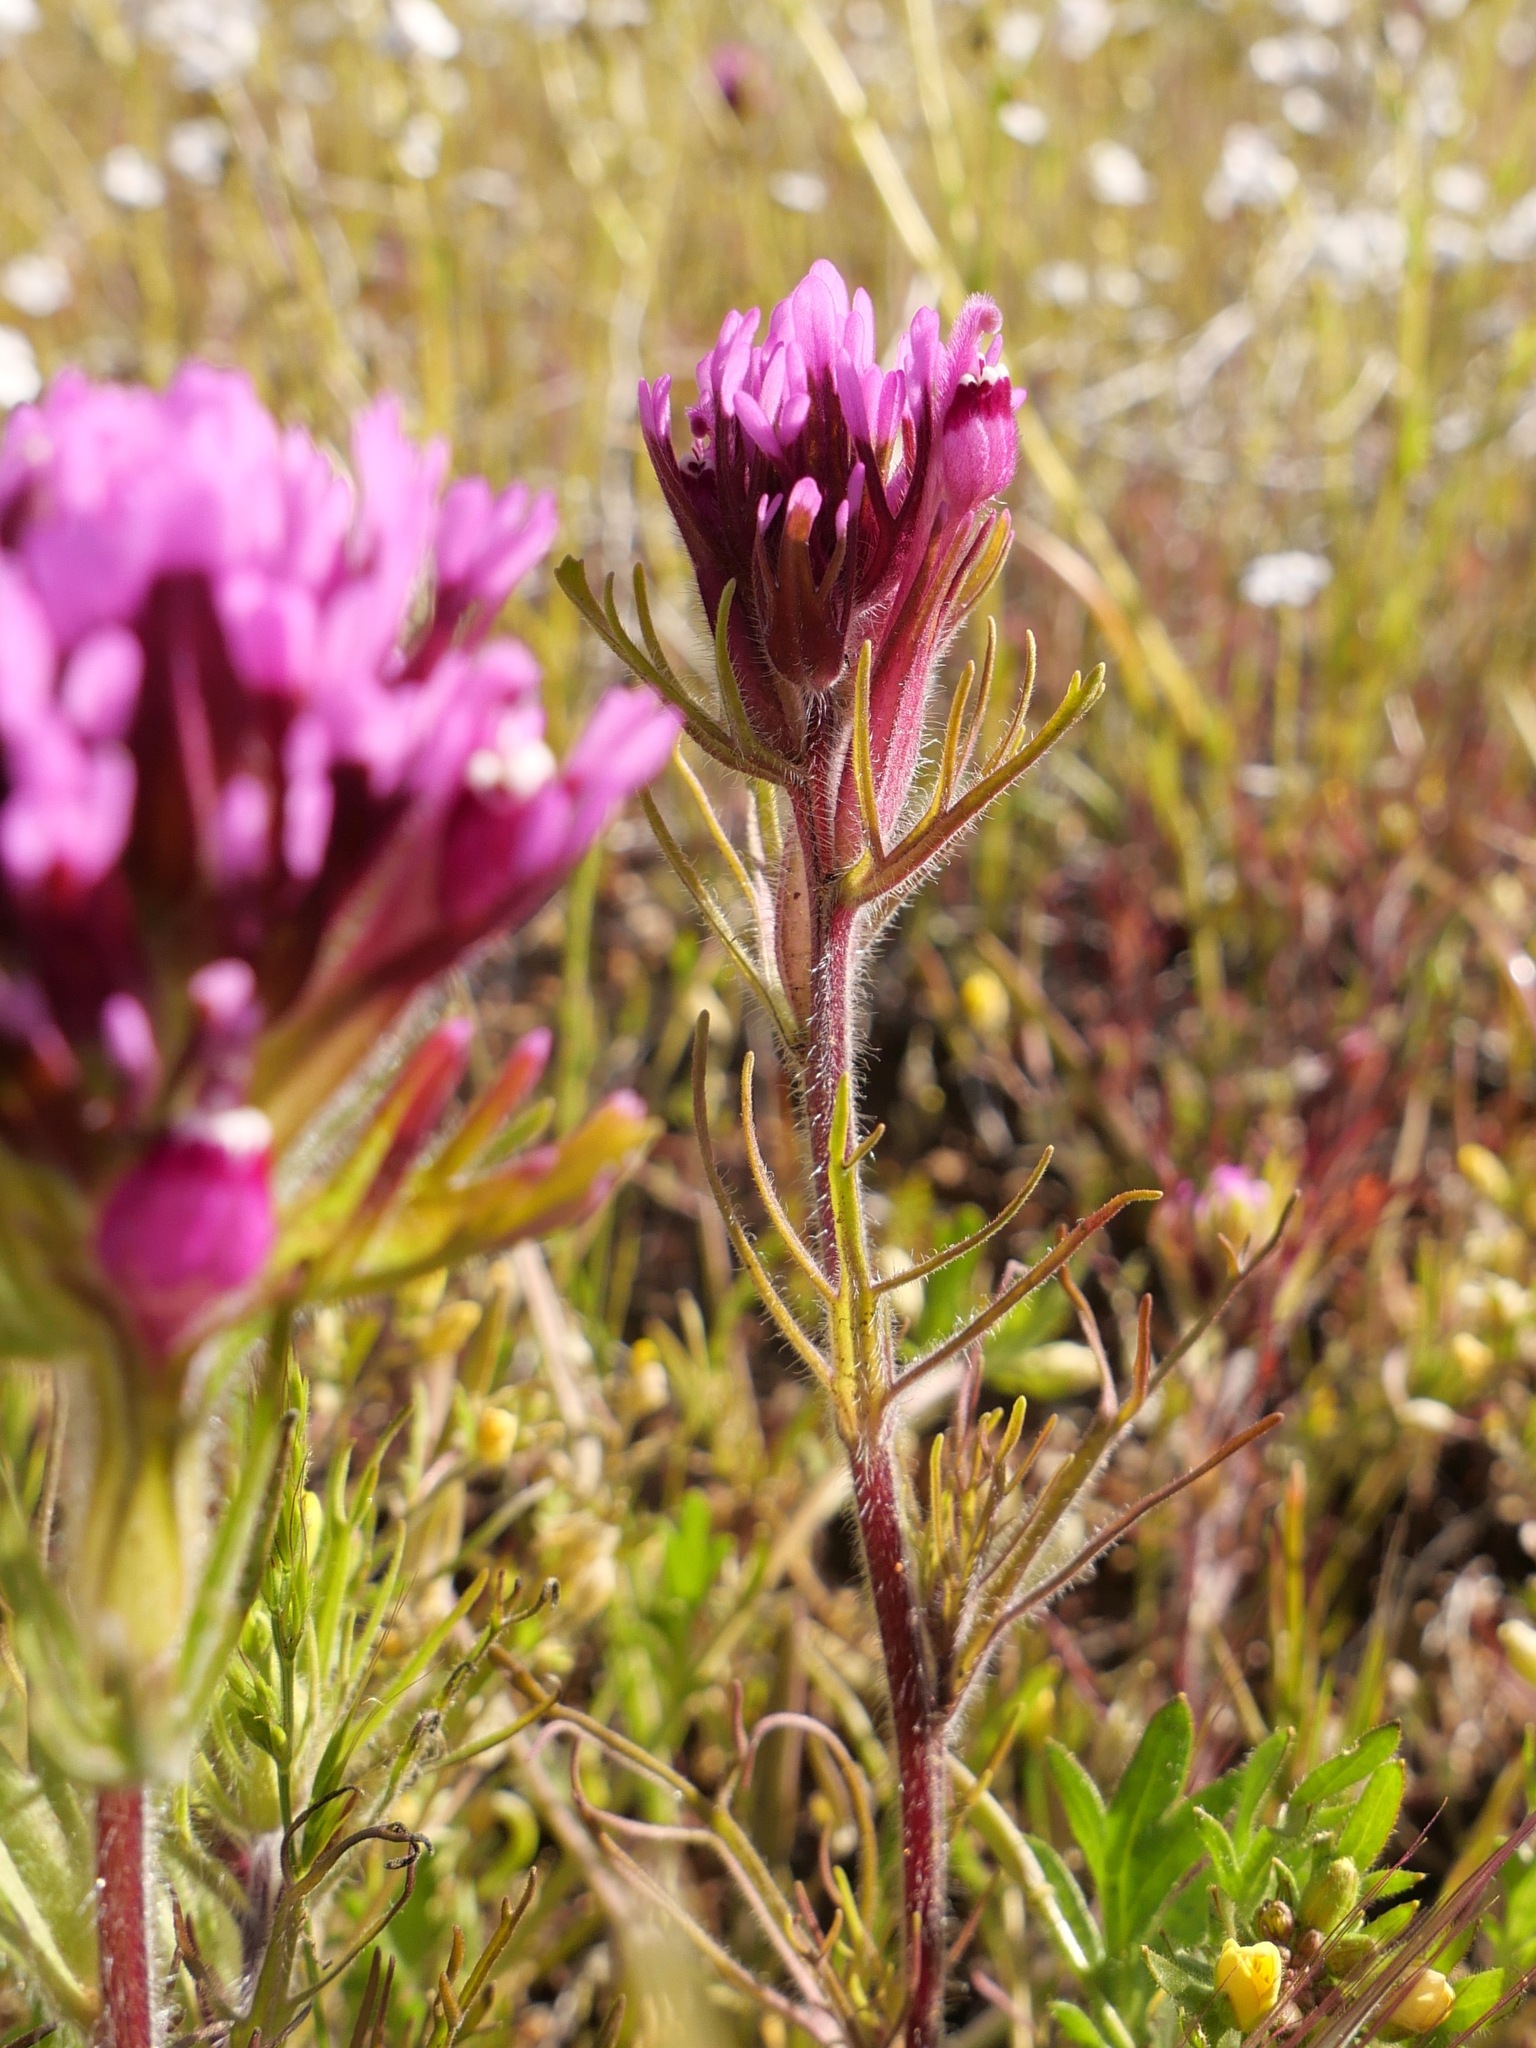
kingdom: Plantae
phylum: Tracheophyta
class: Magnoliopsida
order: Lamiales
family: Orobanchaceae
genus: Castilleja
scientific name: Castilleja exserta
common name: Purple owl-clover
